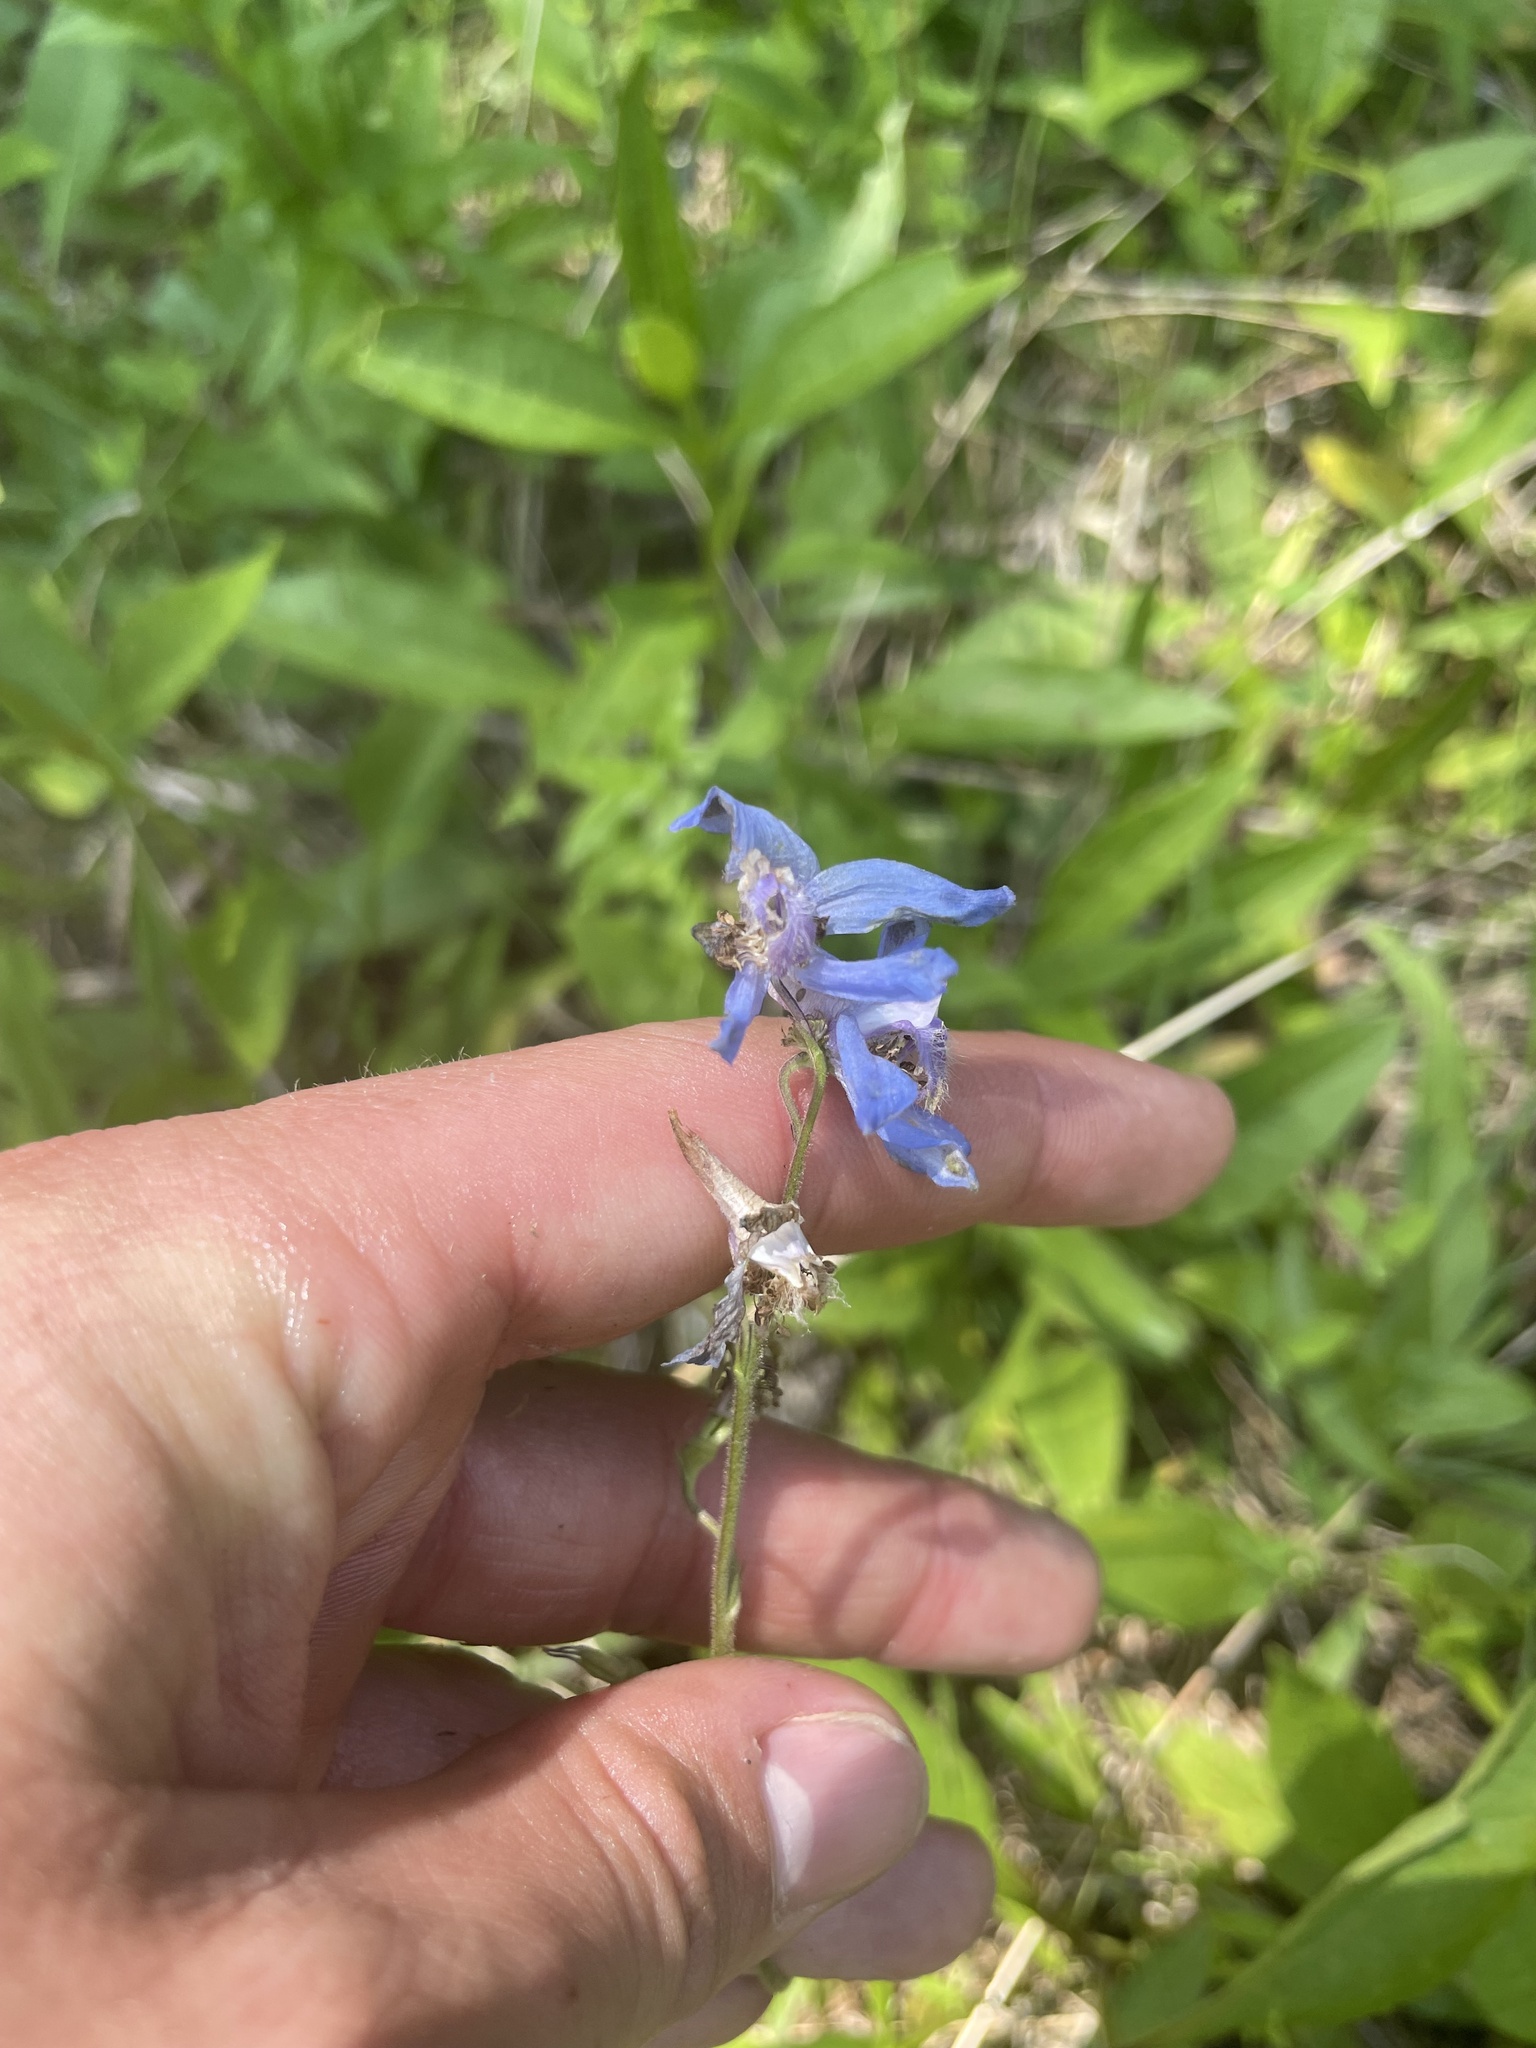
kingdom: Plantae
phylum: Tracheophyta
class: Magnoliopsida
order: Ranunculales
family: Ranunculaceae
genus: Delphinium
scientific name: Delphinium carolinianum
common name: Carolina larkspur
